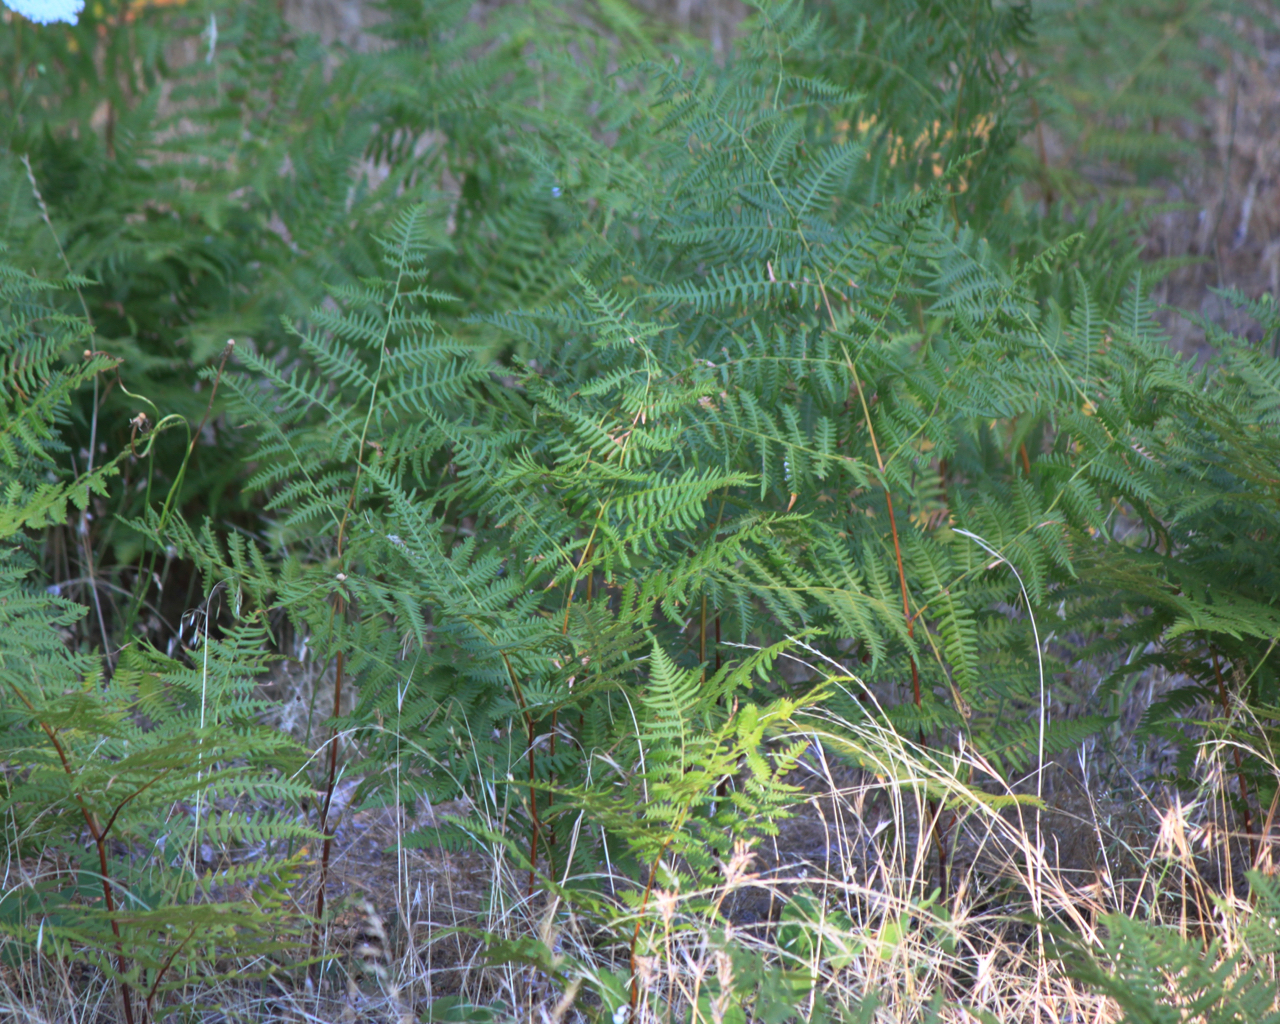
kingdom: Plantae
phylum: Tracheophyta
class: Polypodiopsida
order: Polypodiales
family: Dennstaedtiaceae
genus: Pteridium
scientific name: Pteridium aquilinum
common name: Bracken
